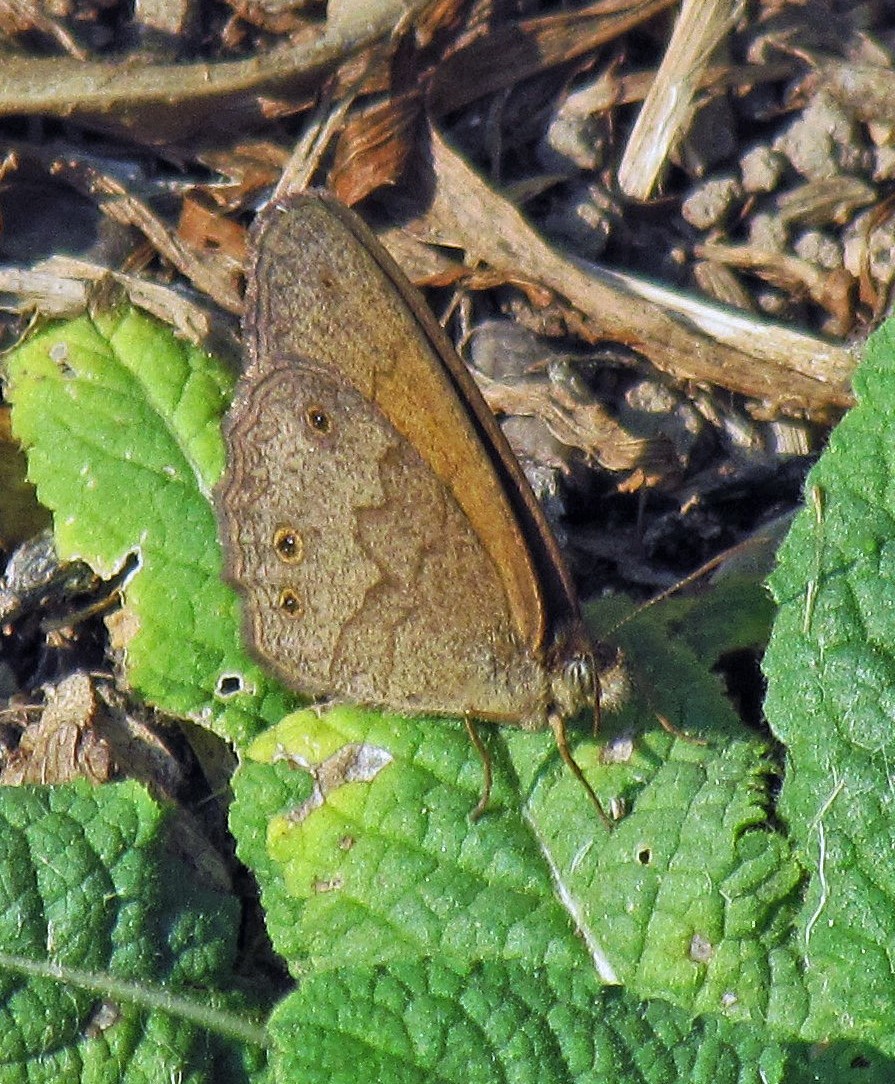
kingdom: Animalia
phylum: Arthropoda
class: Insecta
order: Lepidoptera
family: Nymphalidae
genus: Yphthimoides
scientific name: Yphthimoides celmis
